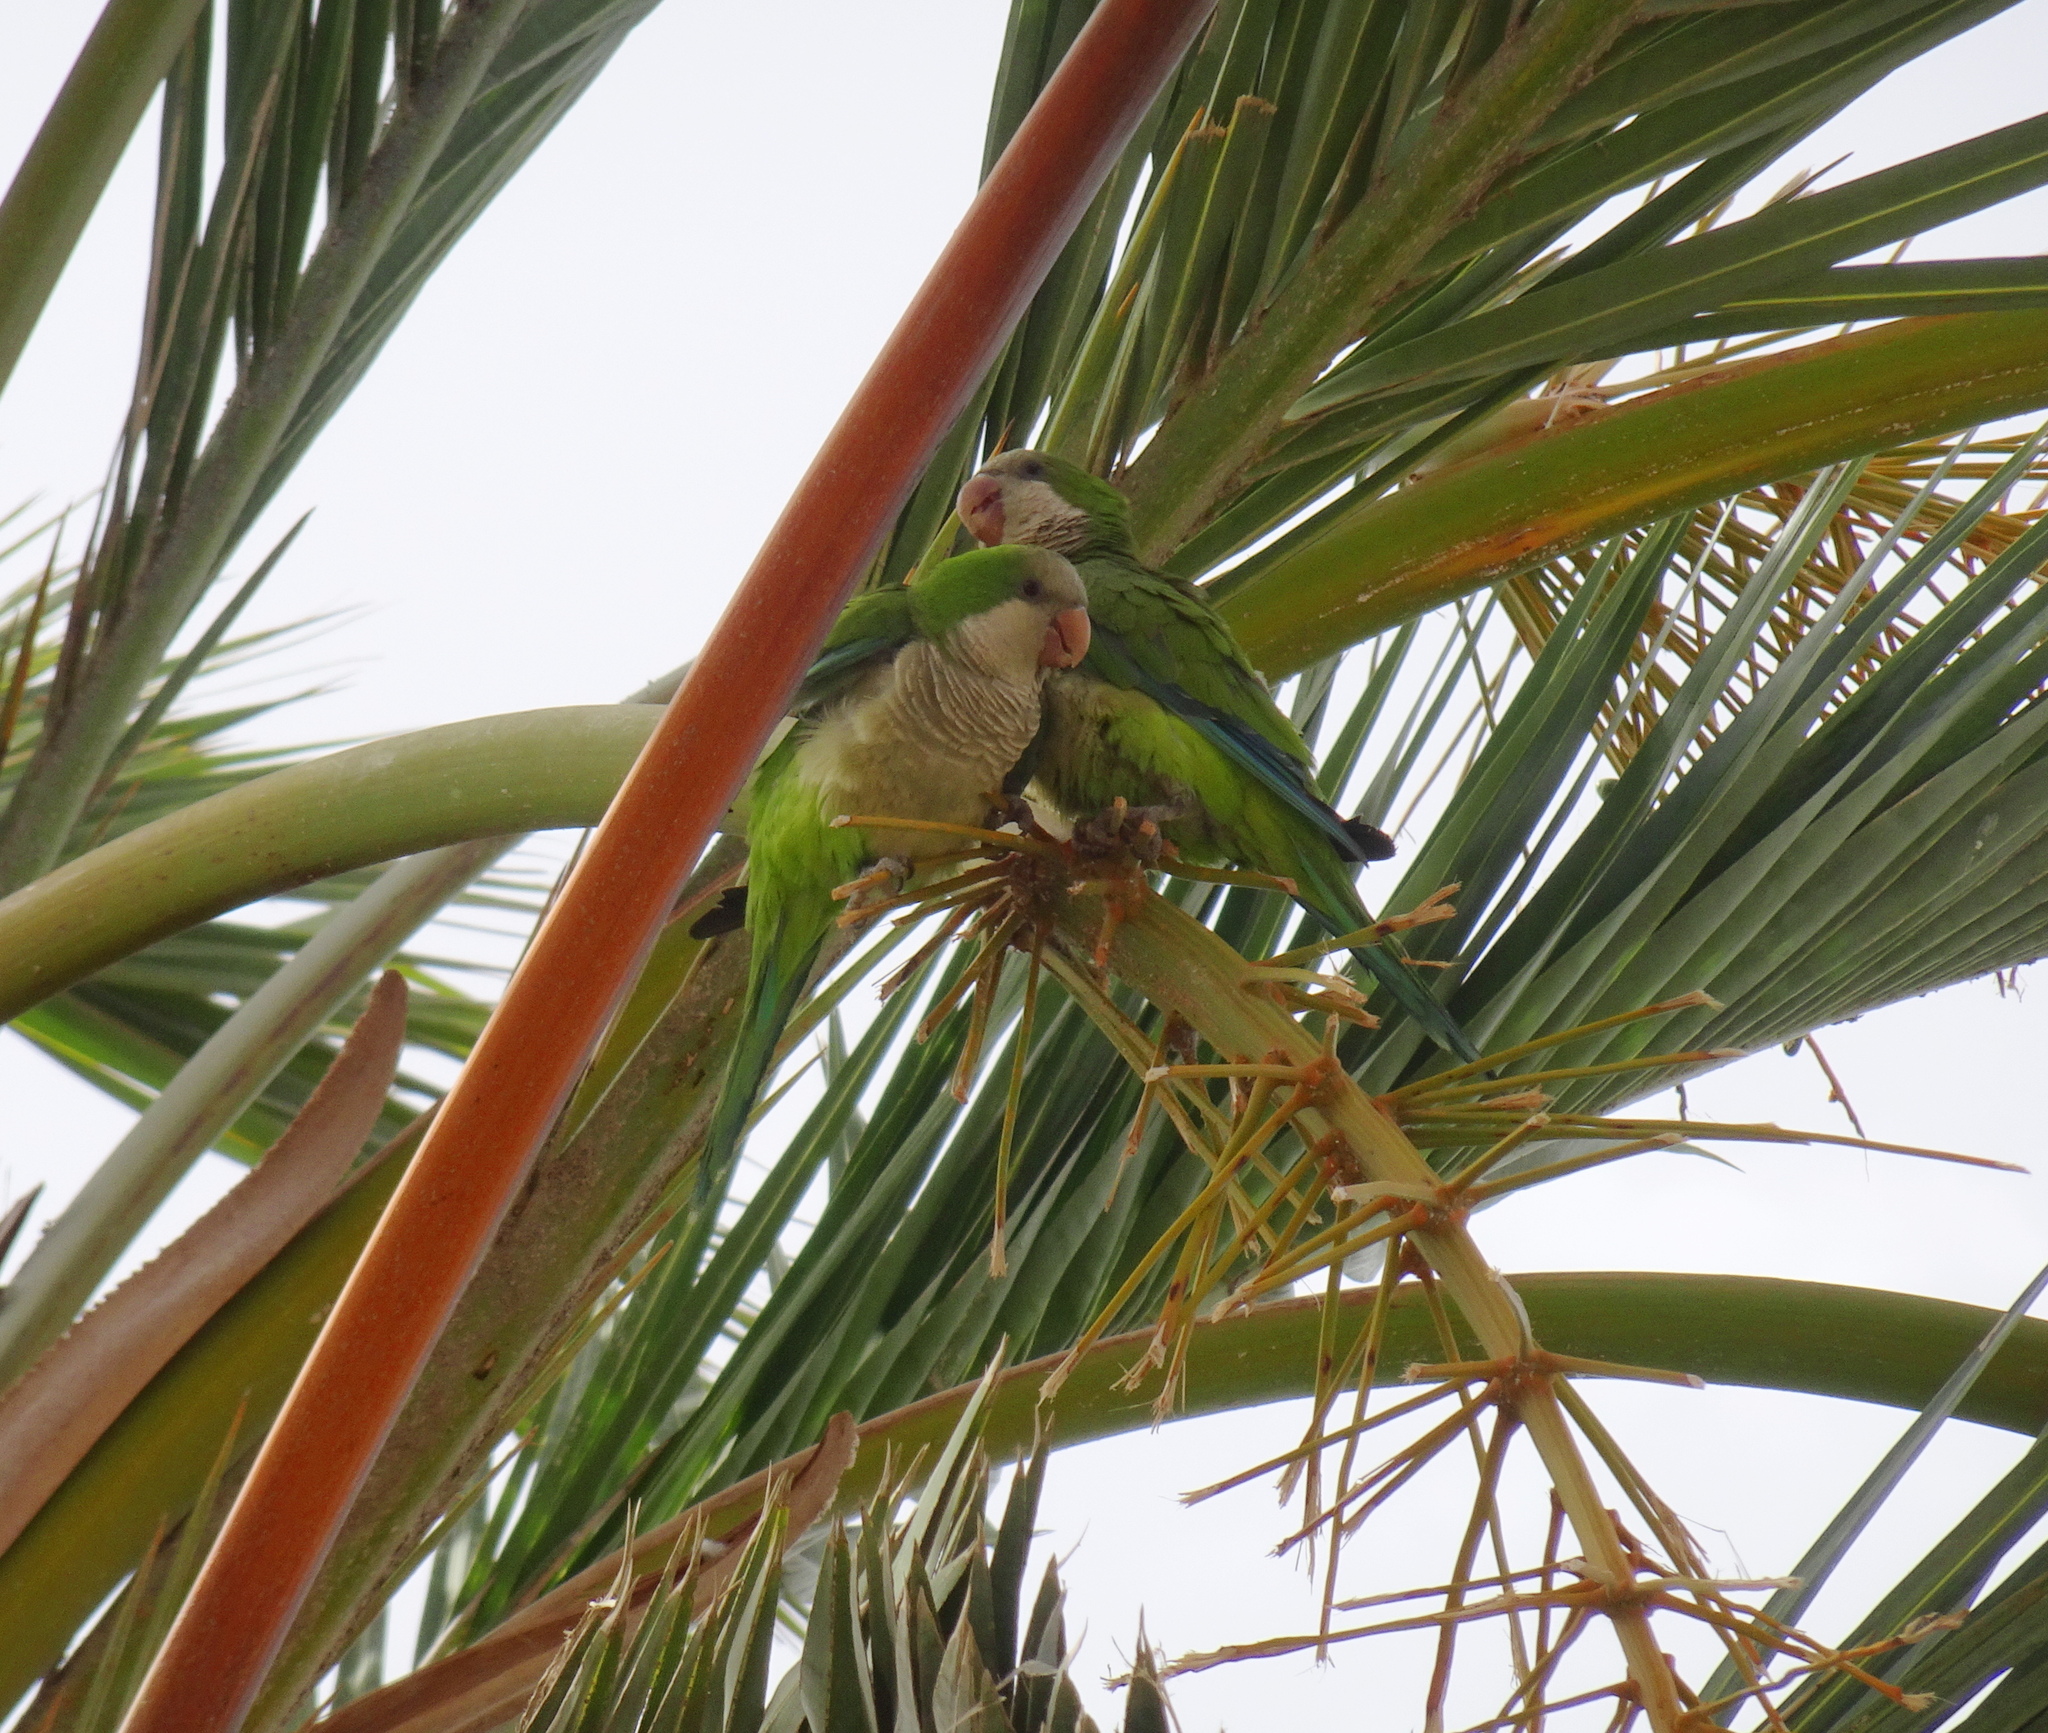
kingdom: Animalia
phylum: Chordata
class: Aves
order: Psittaciformes
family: Psittacidae
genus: Myiopsitta
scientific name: Myiopsitta monachus
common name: Monk parakeet
